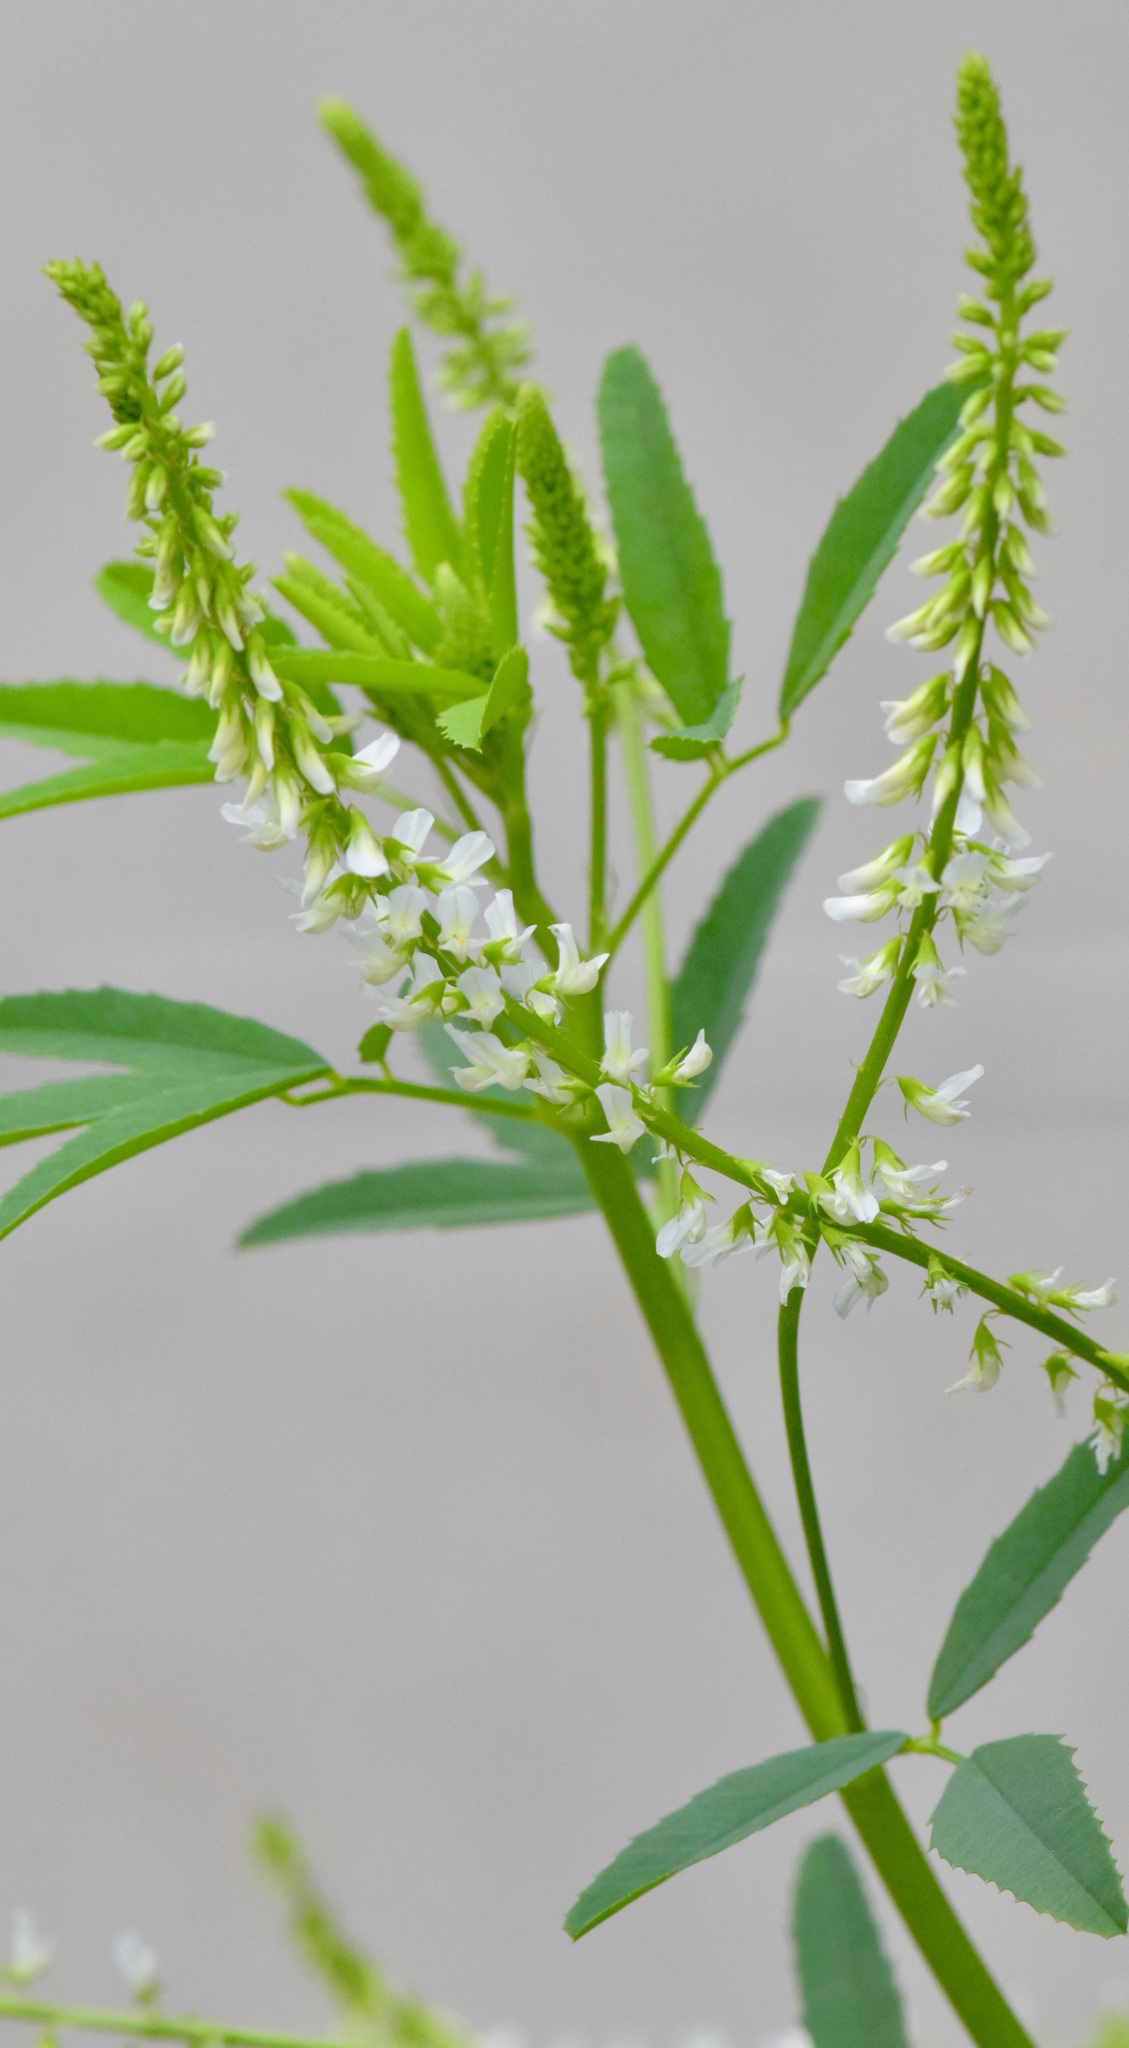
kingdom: Plantae
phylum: Tracheophyta
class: Magnoliopsida
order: Fabales
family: Fabaceae
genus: Melilotus
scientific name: Melilotus albus
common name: White melilot
